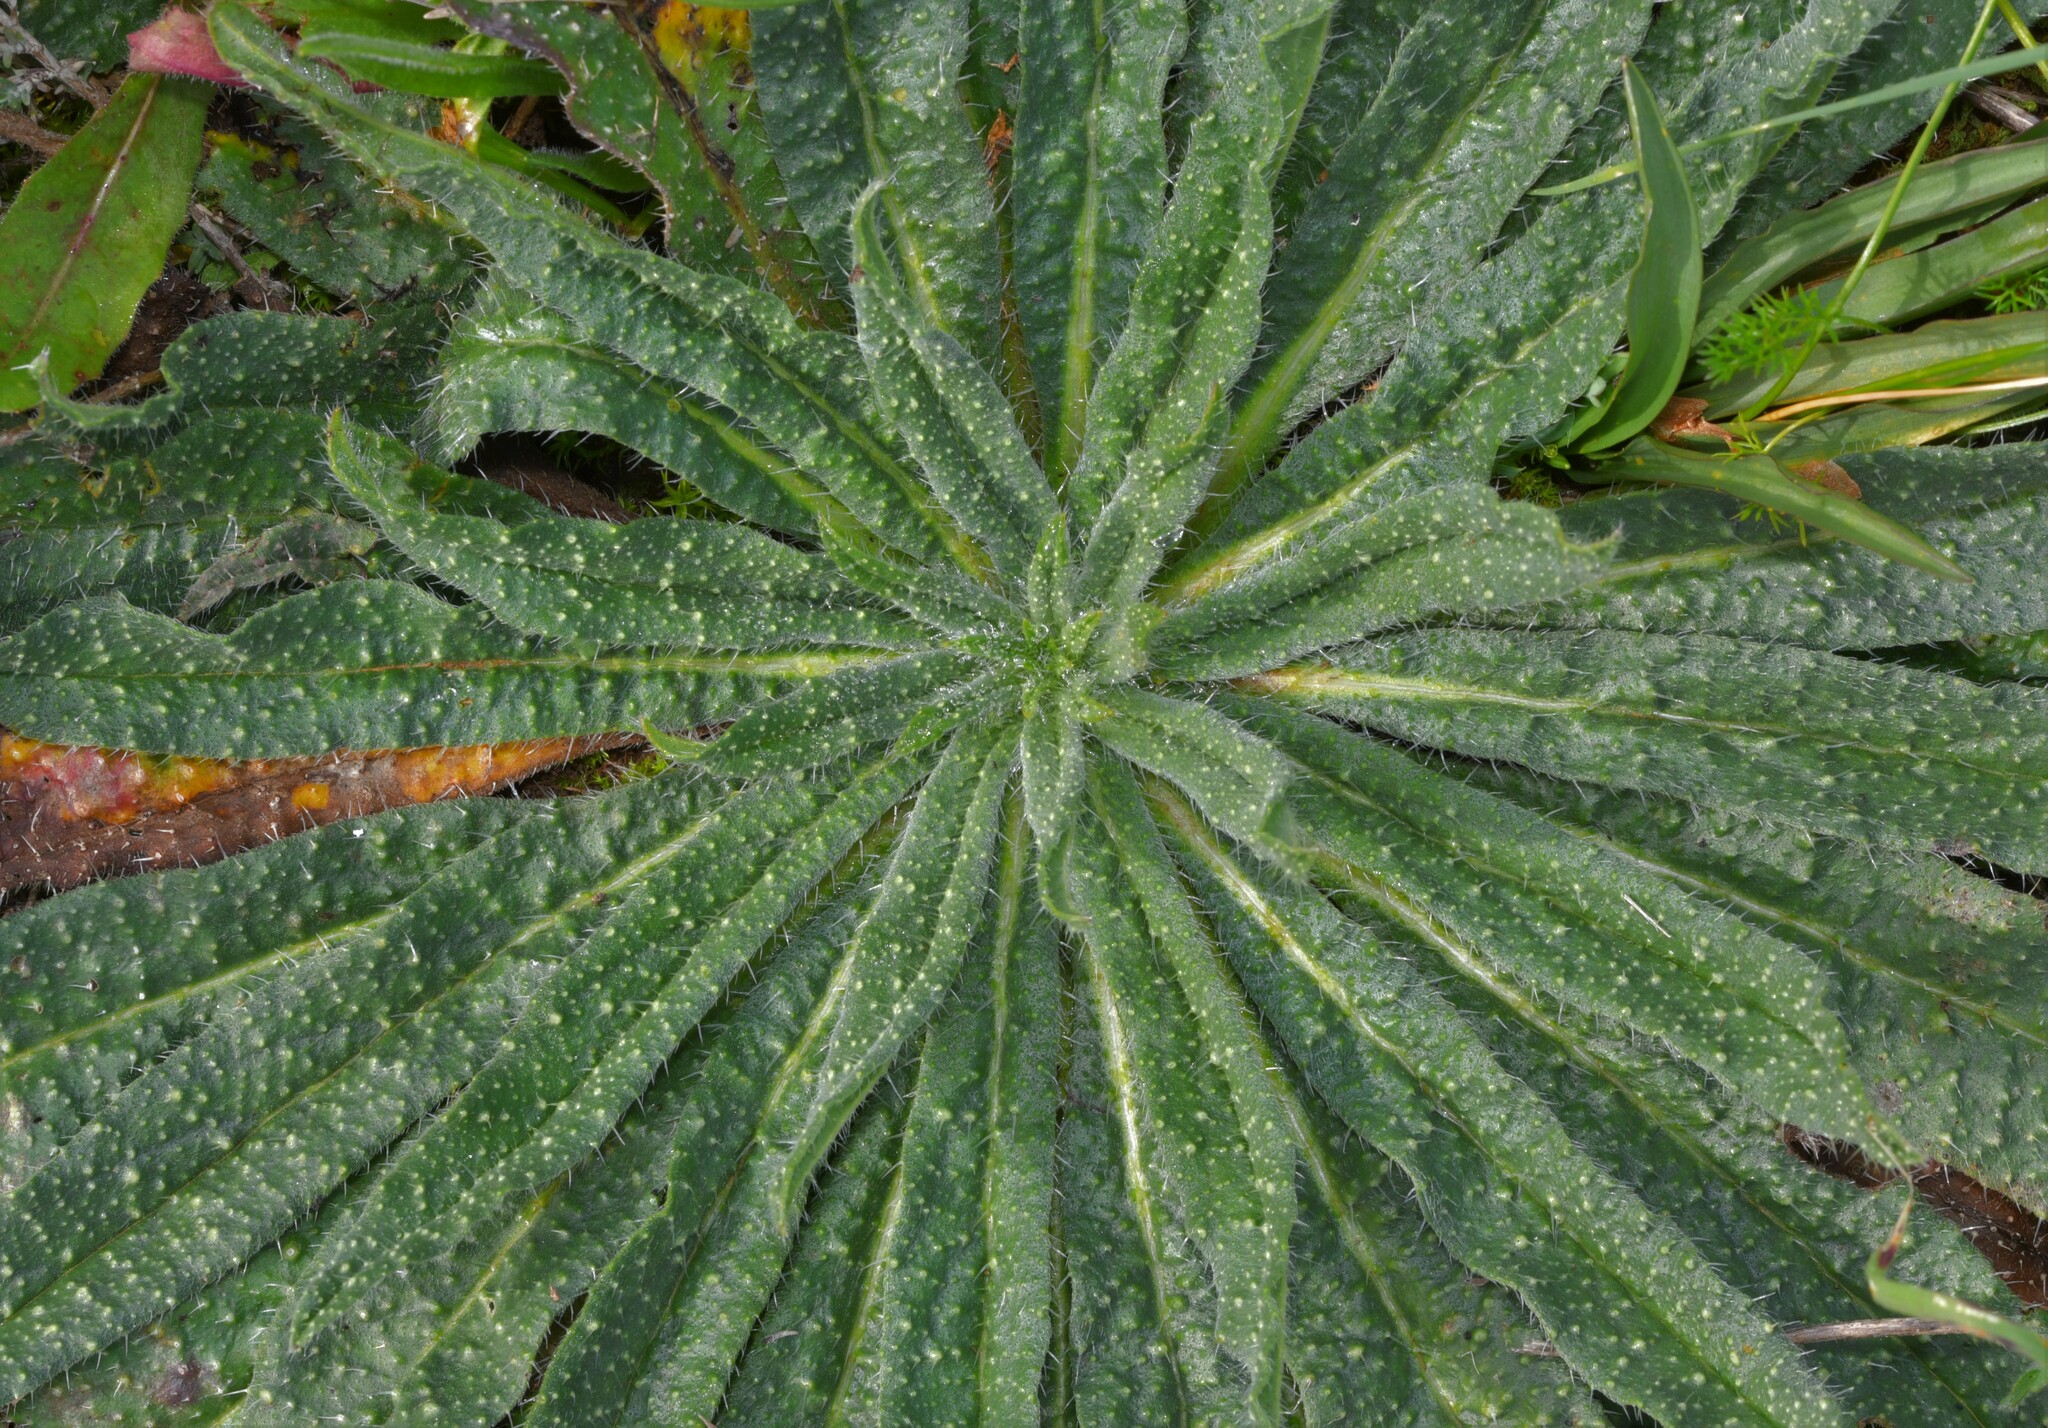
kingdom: Plantae
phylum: Tracheophyta
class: Magnoliopsida
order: Boraginales
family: Boraginaceae
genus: Echium
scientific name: Echium tuberculatum
